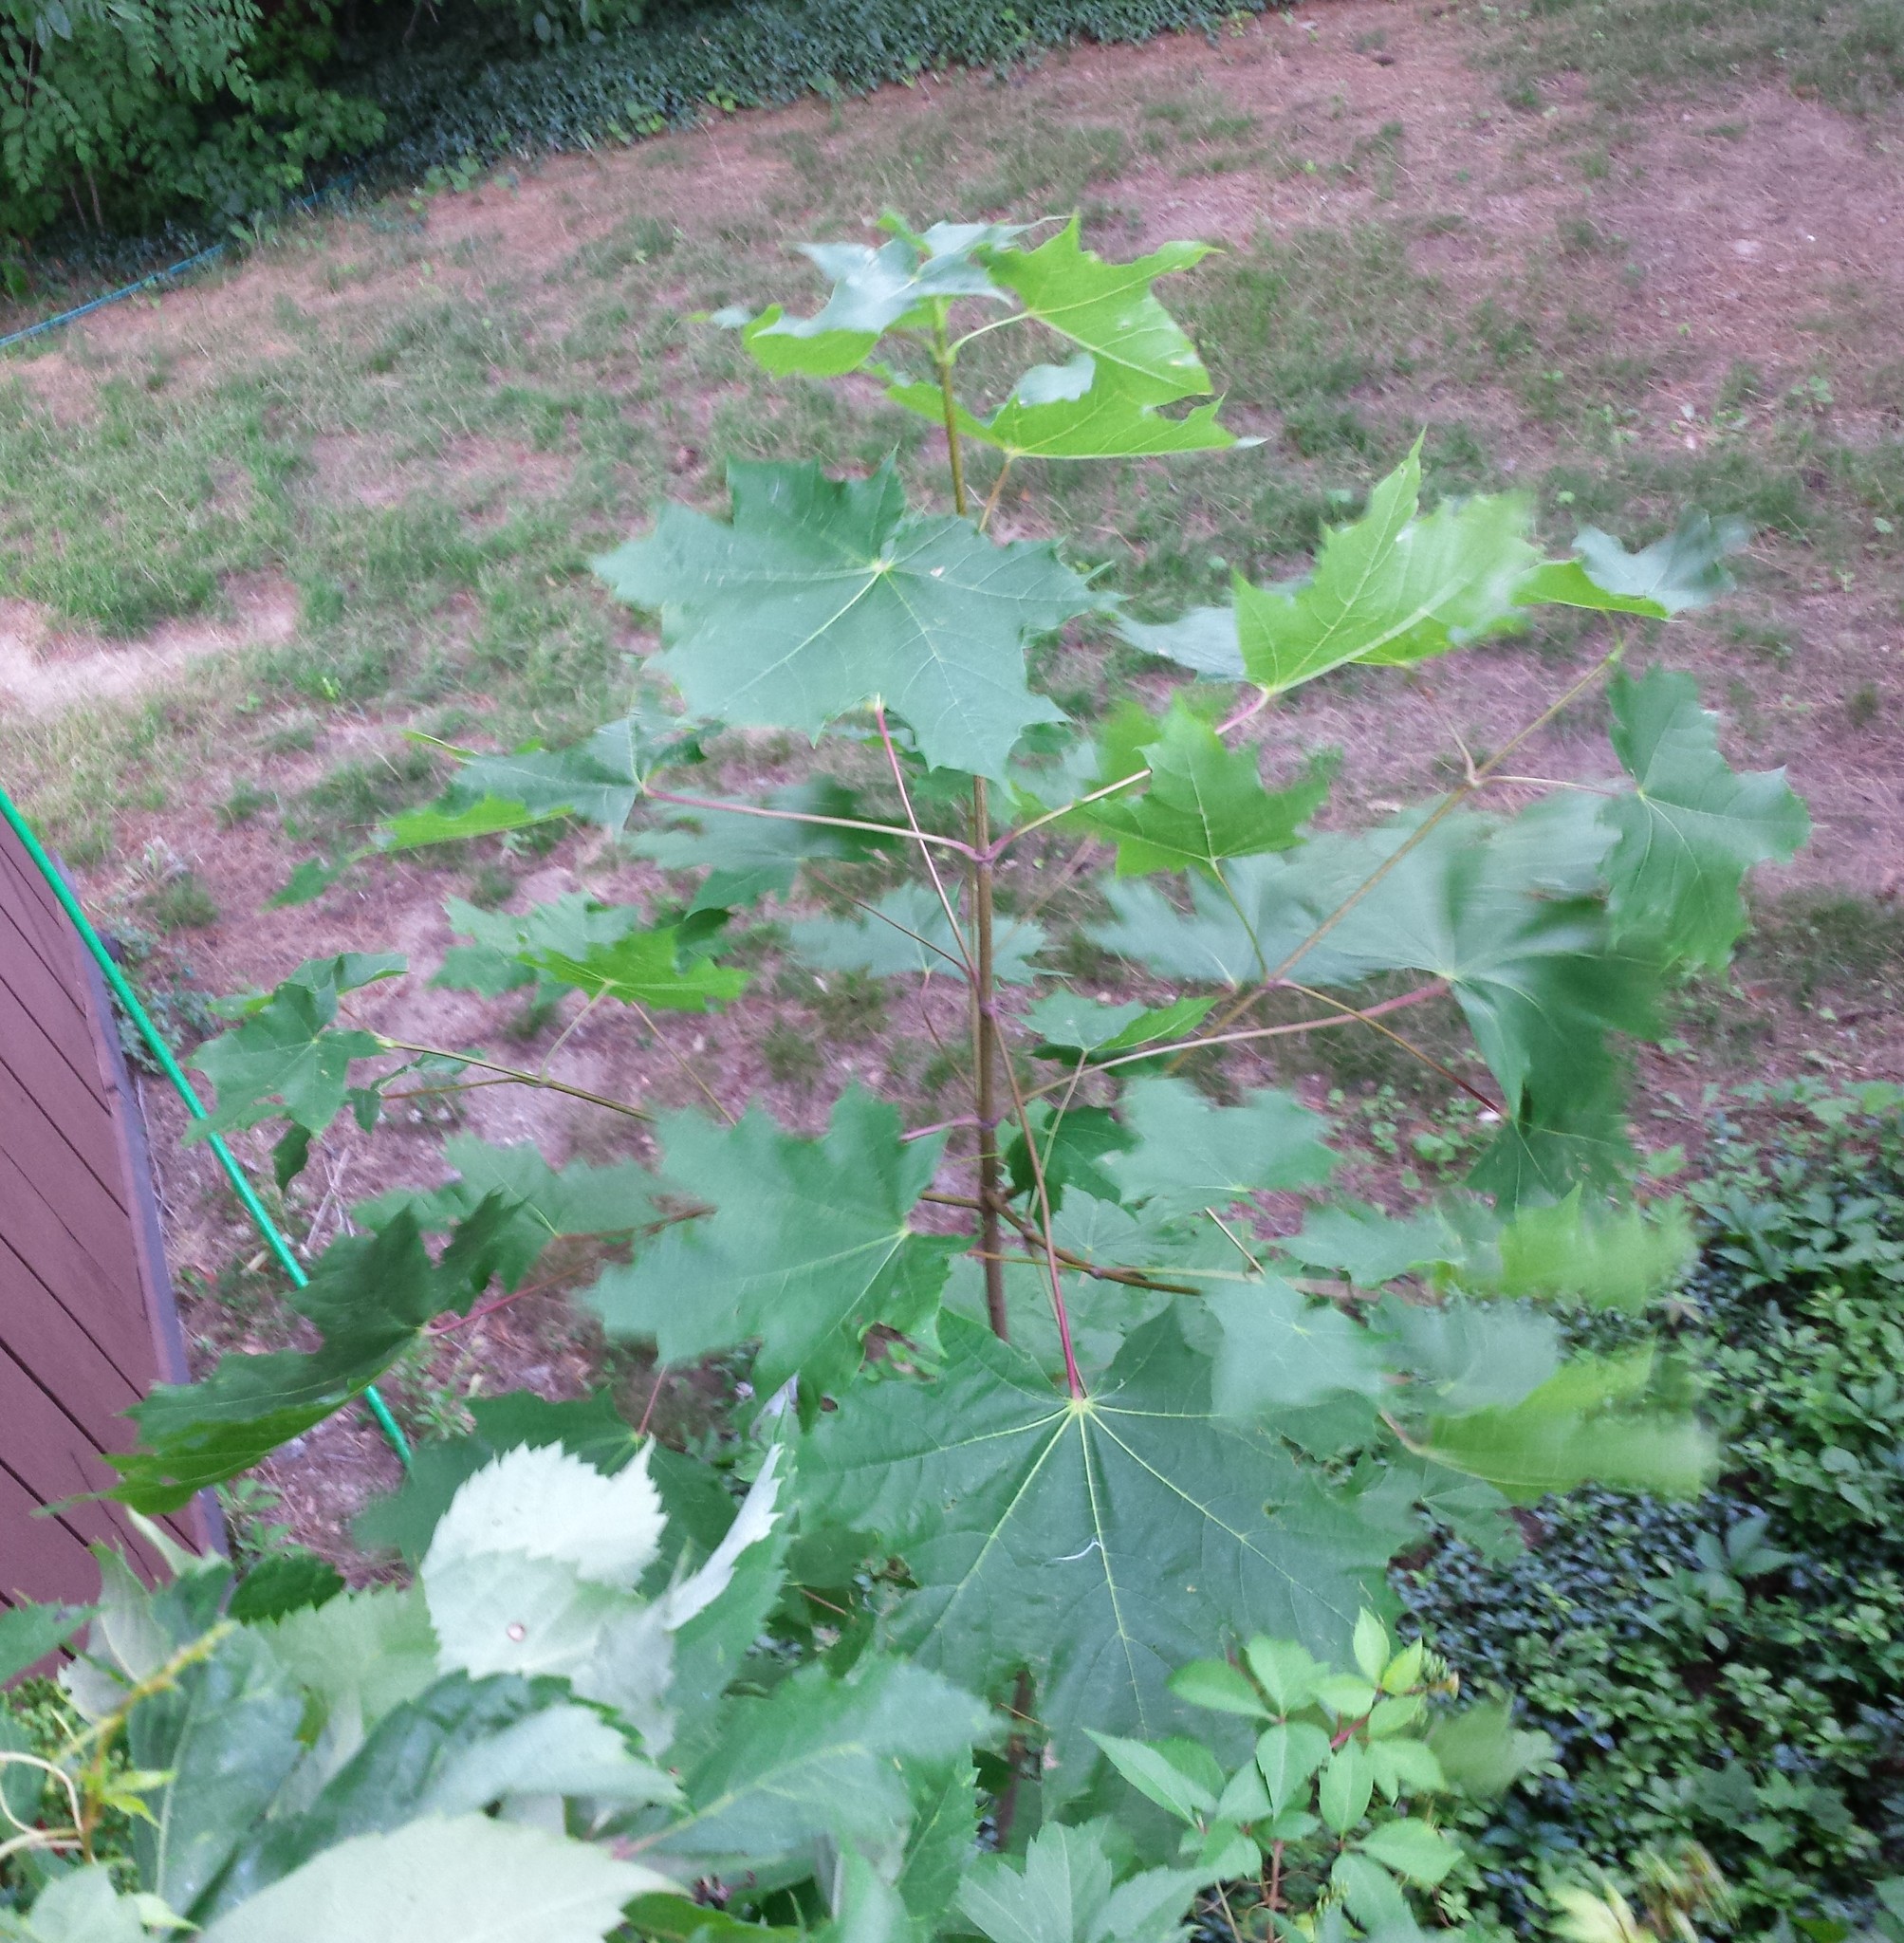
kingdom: Plantae
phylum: Tracheophyta
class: Magnoliopsida
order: Sapindales
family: Sapindaceae
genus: Acer
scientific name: Acer platanoides
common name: Norway maple
